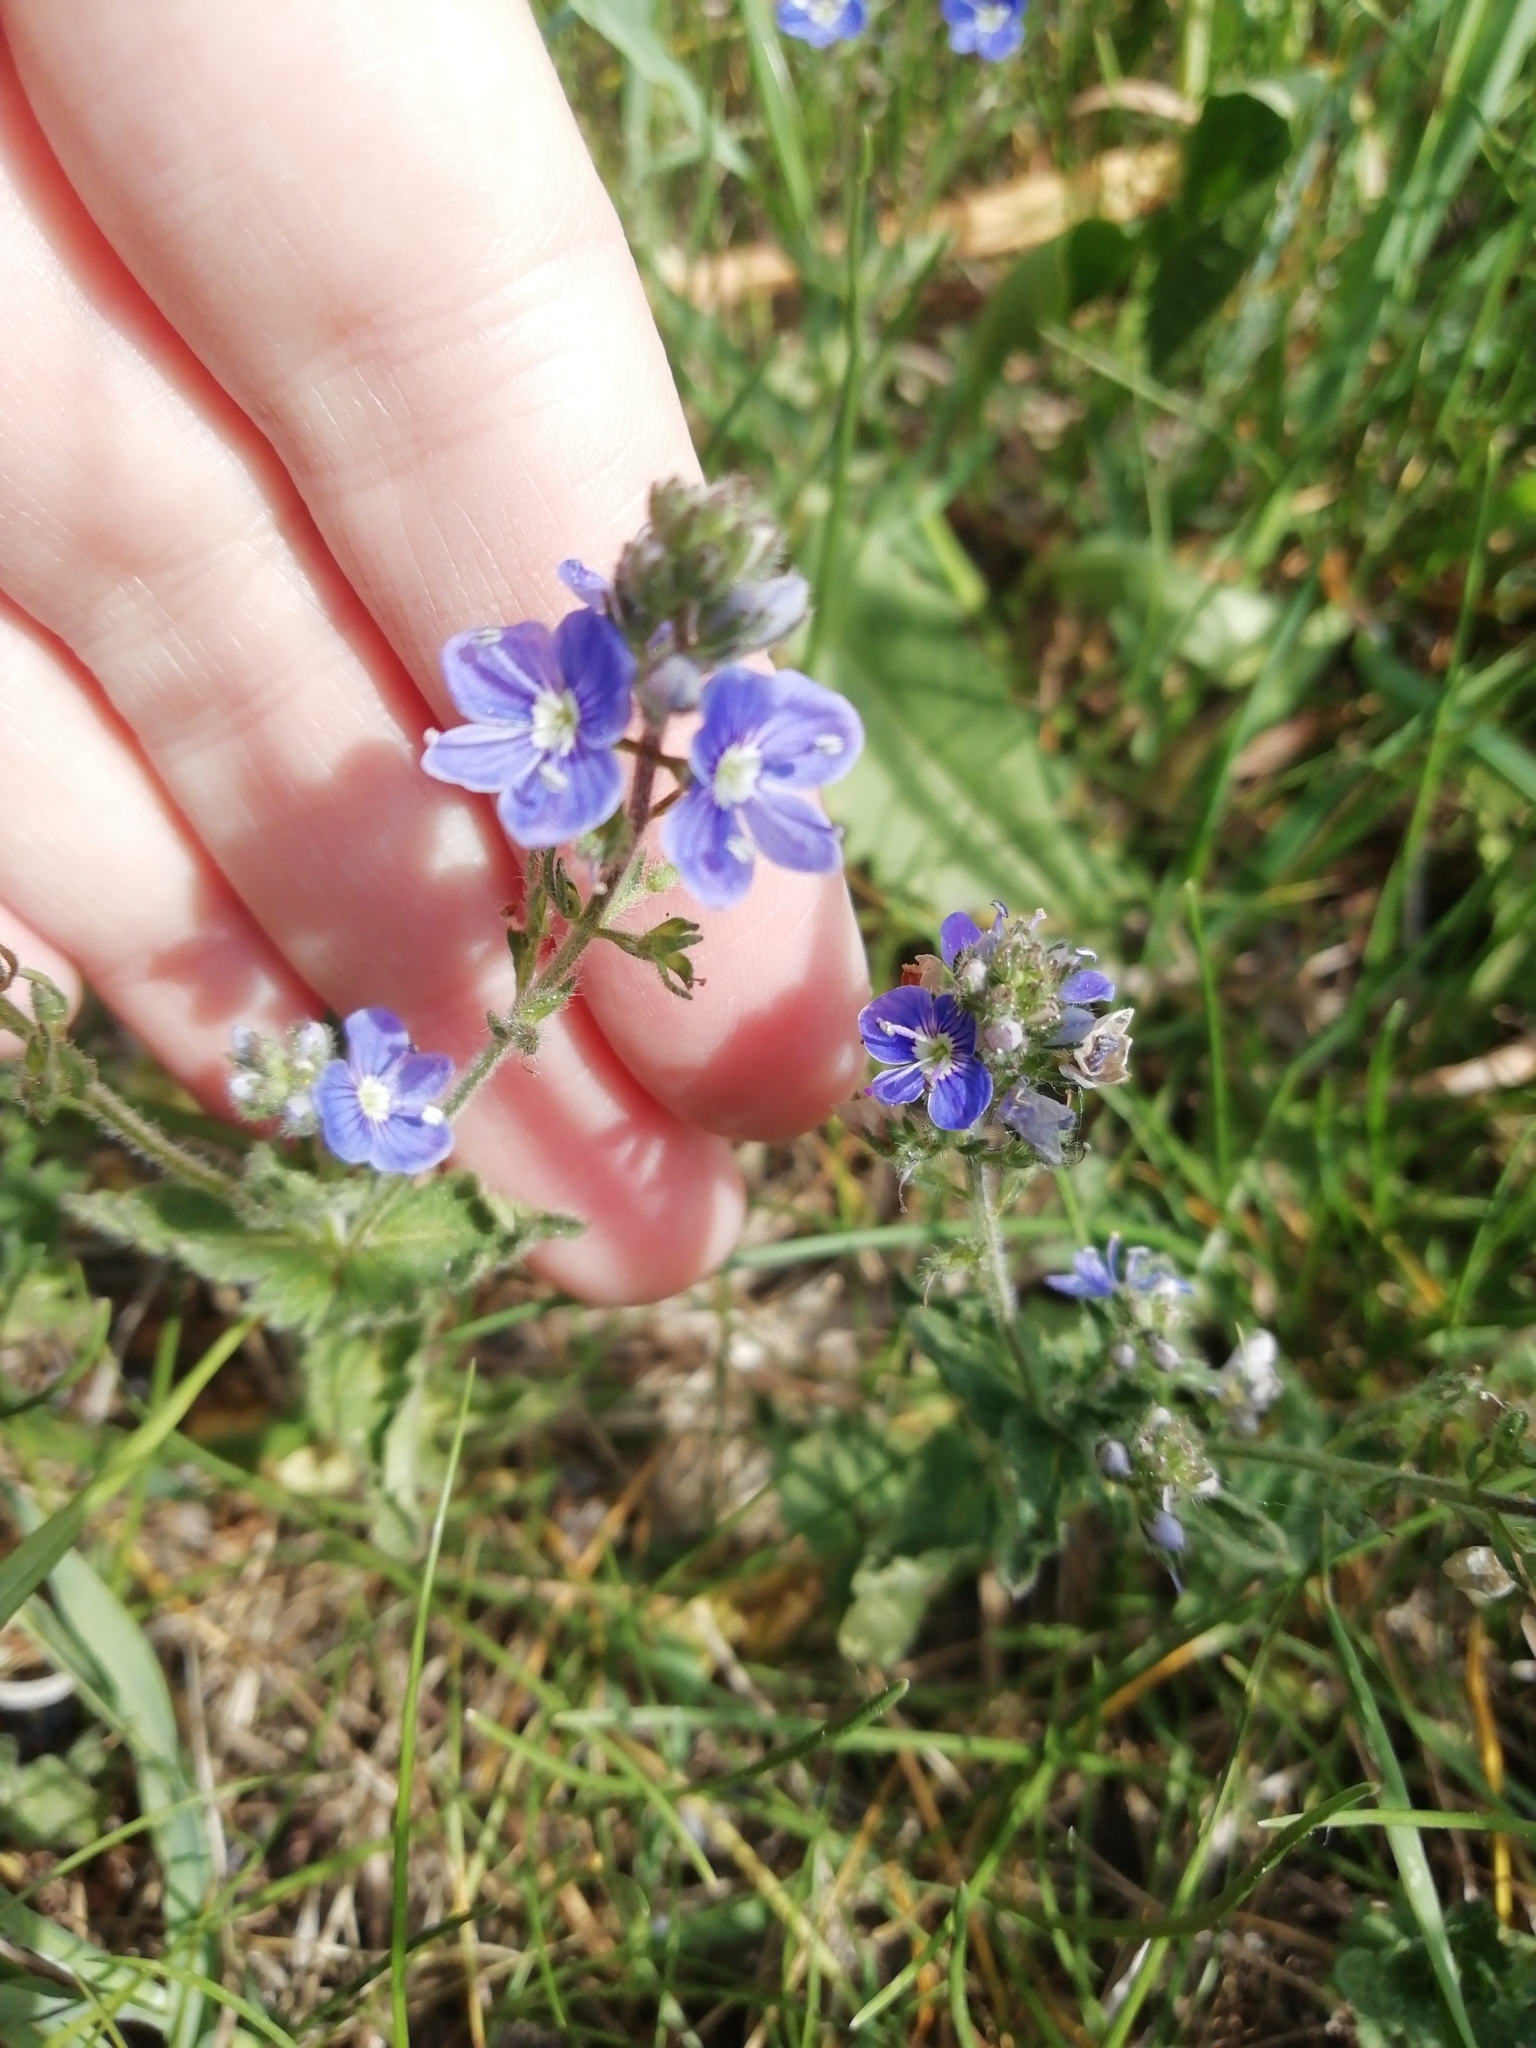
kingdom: Plantae
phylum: Tracheophyta
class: Magnoliopsida
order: Lamiales
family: Plantaginaceae
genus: Veronica
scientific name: Veronica chamaedrys
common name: Germander speedwell
